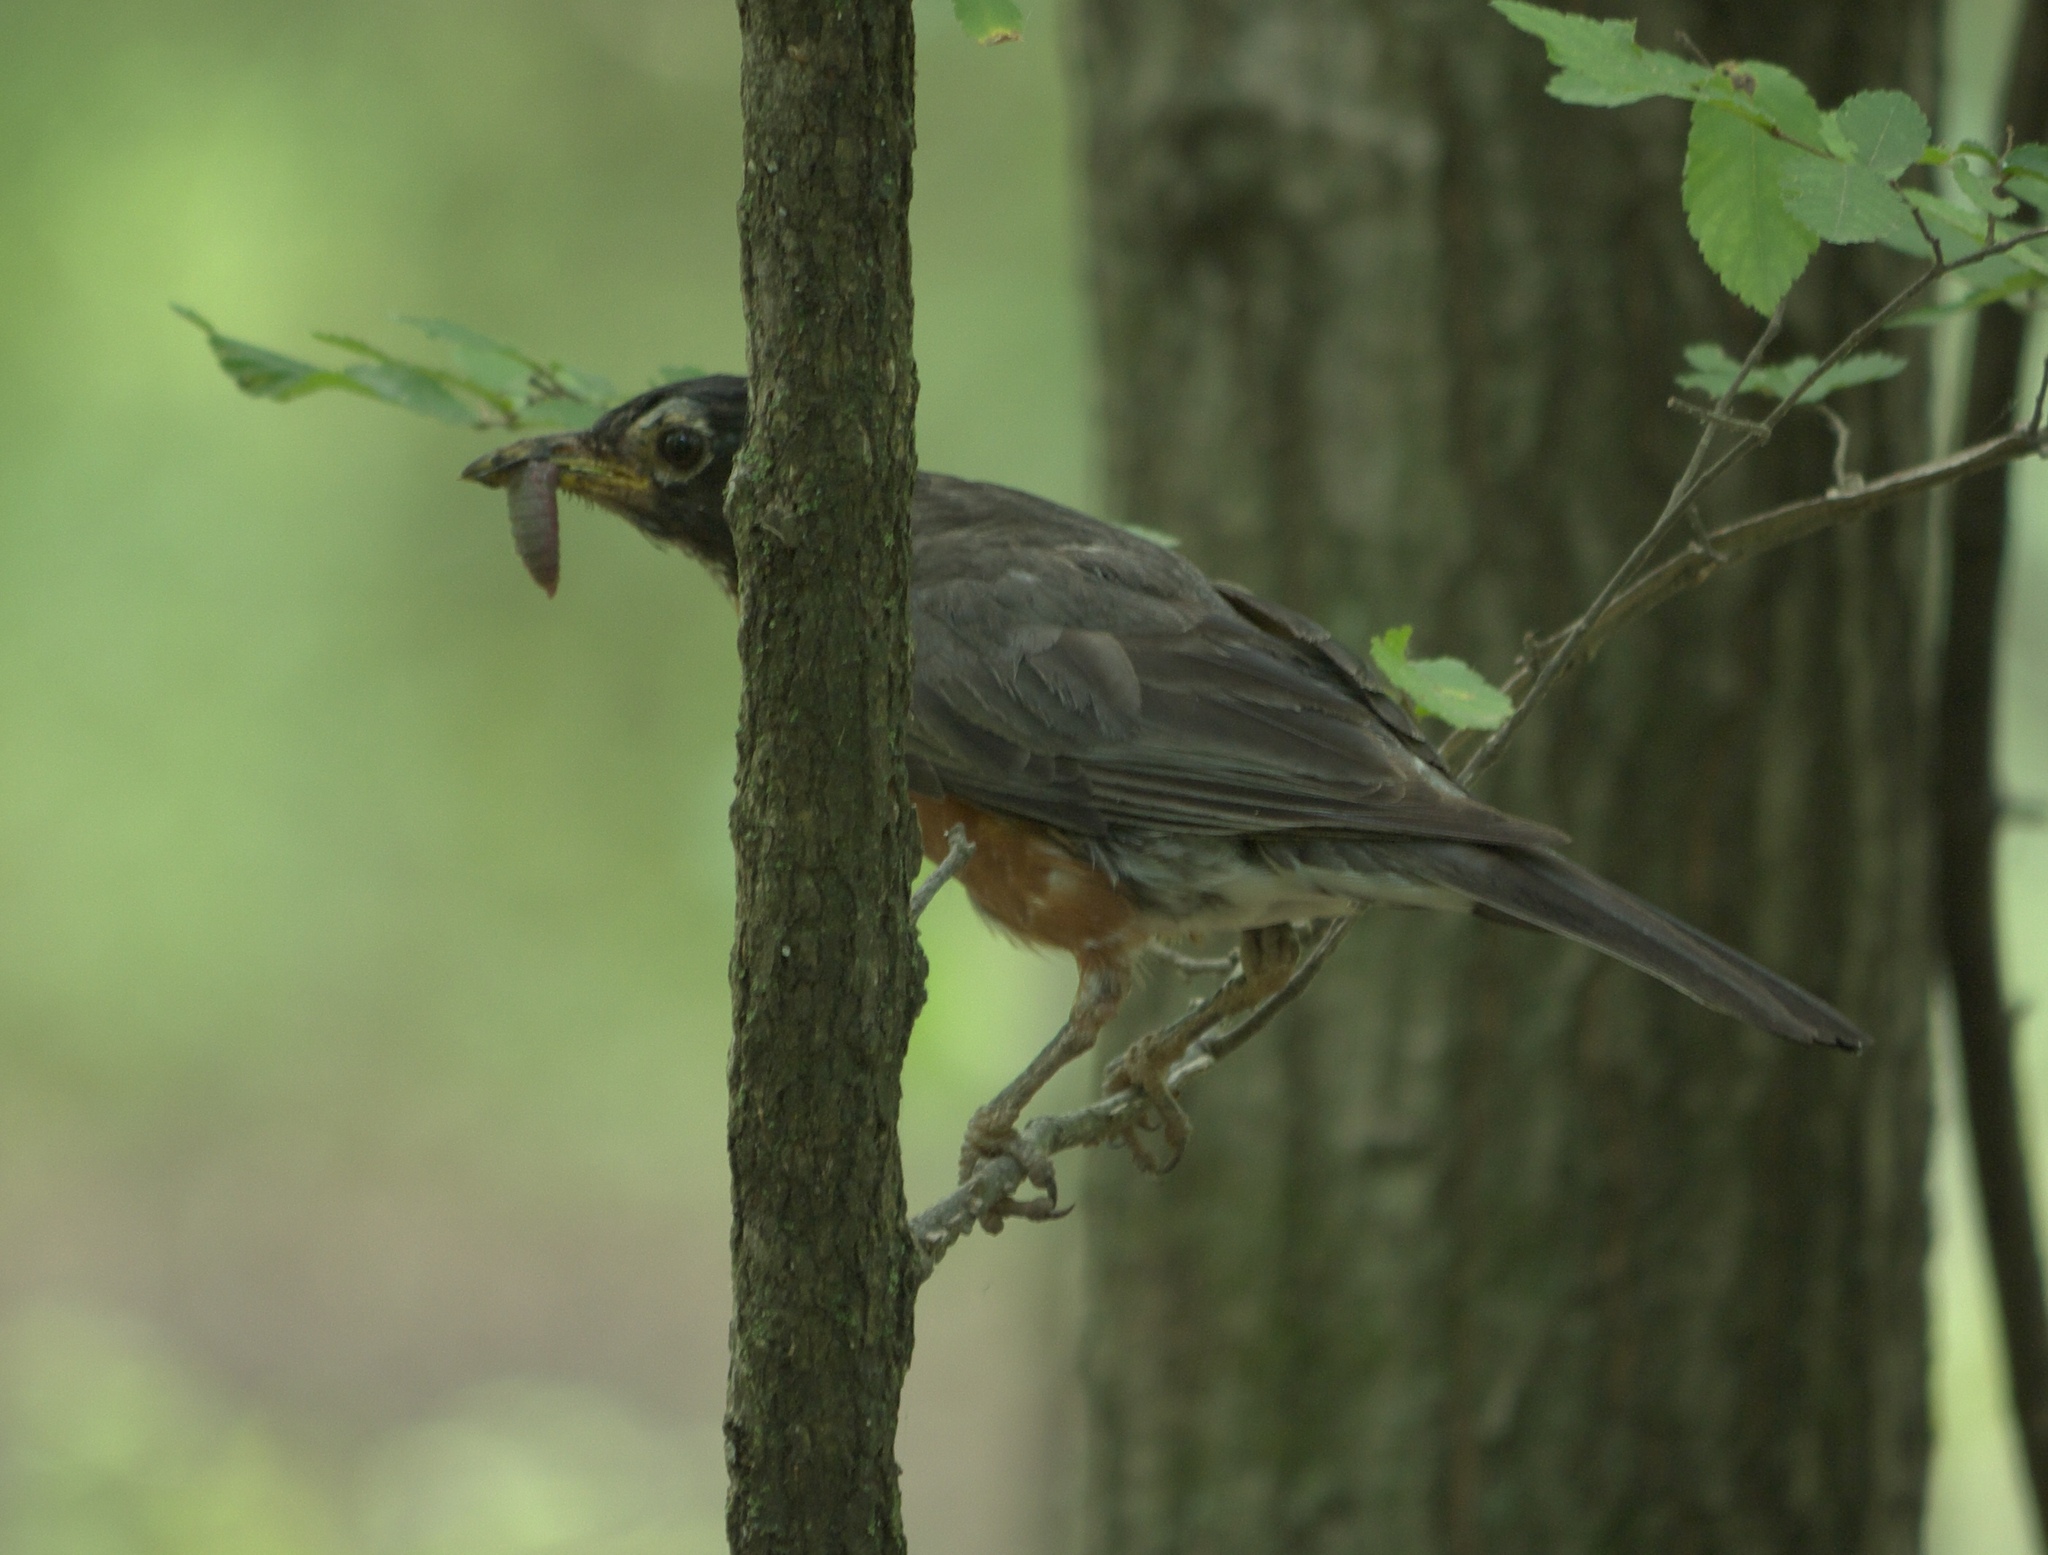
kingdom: Animalia
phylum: Chordata
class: Aves
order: Passeriformes
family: Turdidae
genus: Turdus
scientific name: Turdus migratorius
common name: American robin
